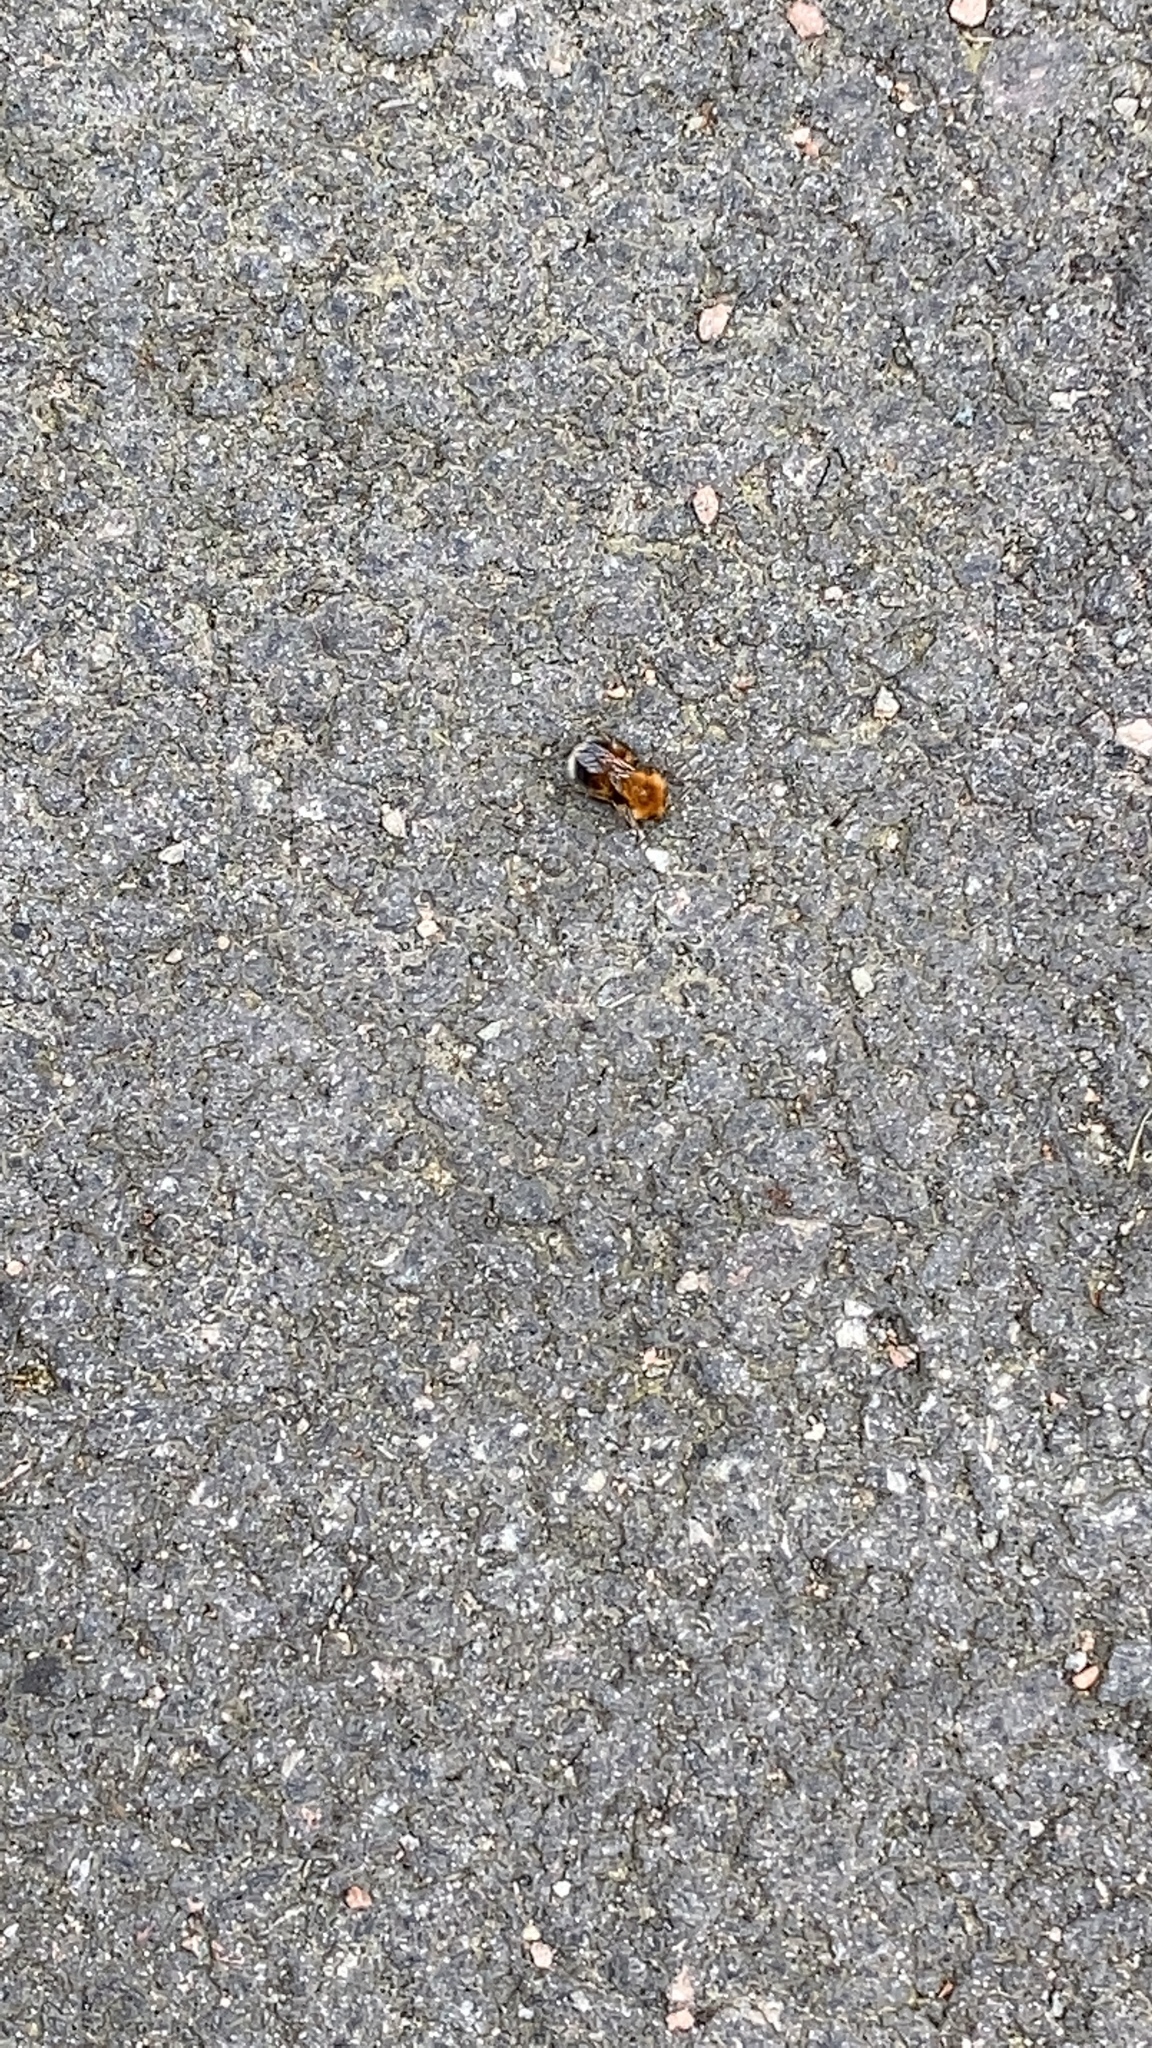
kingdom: Animalia
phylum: Arthropoda
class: Insecta
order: Hymenoptera
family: Apidae
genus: Bombus
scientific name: Bombus hypnorum
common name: New garden bumblebee
